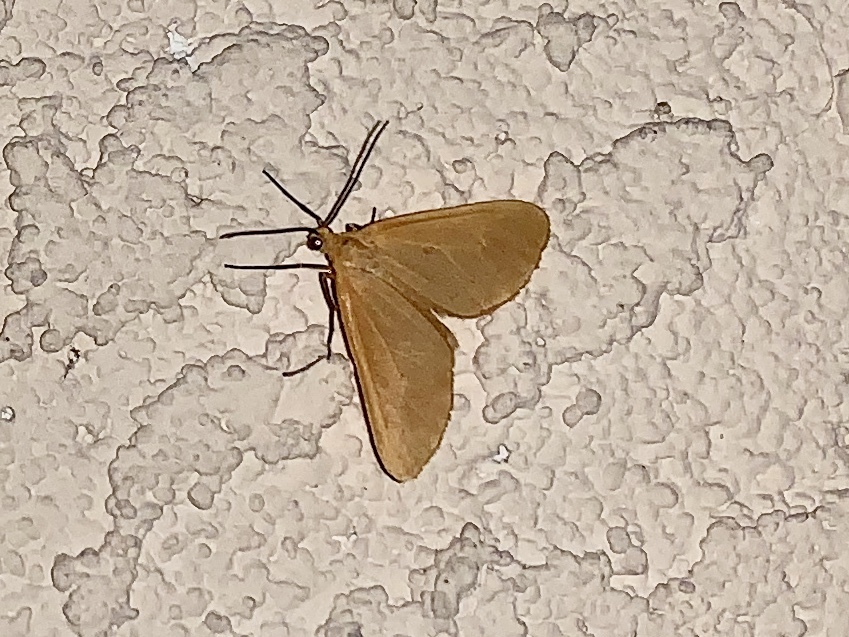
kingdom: Animalia
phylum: Arthropoda
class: Insecta
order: Lepidoptera
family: Geometridae
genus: Eubaphe
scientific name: Eubaphe unicolor
